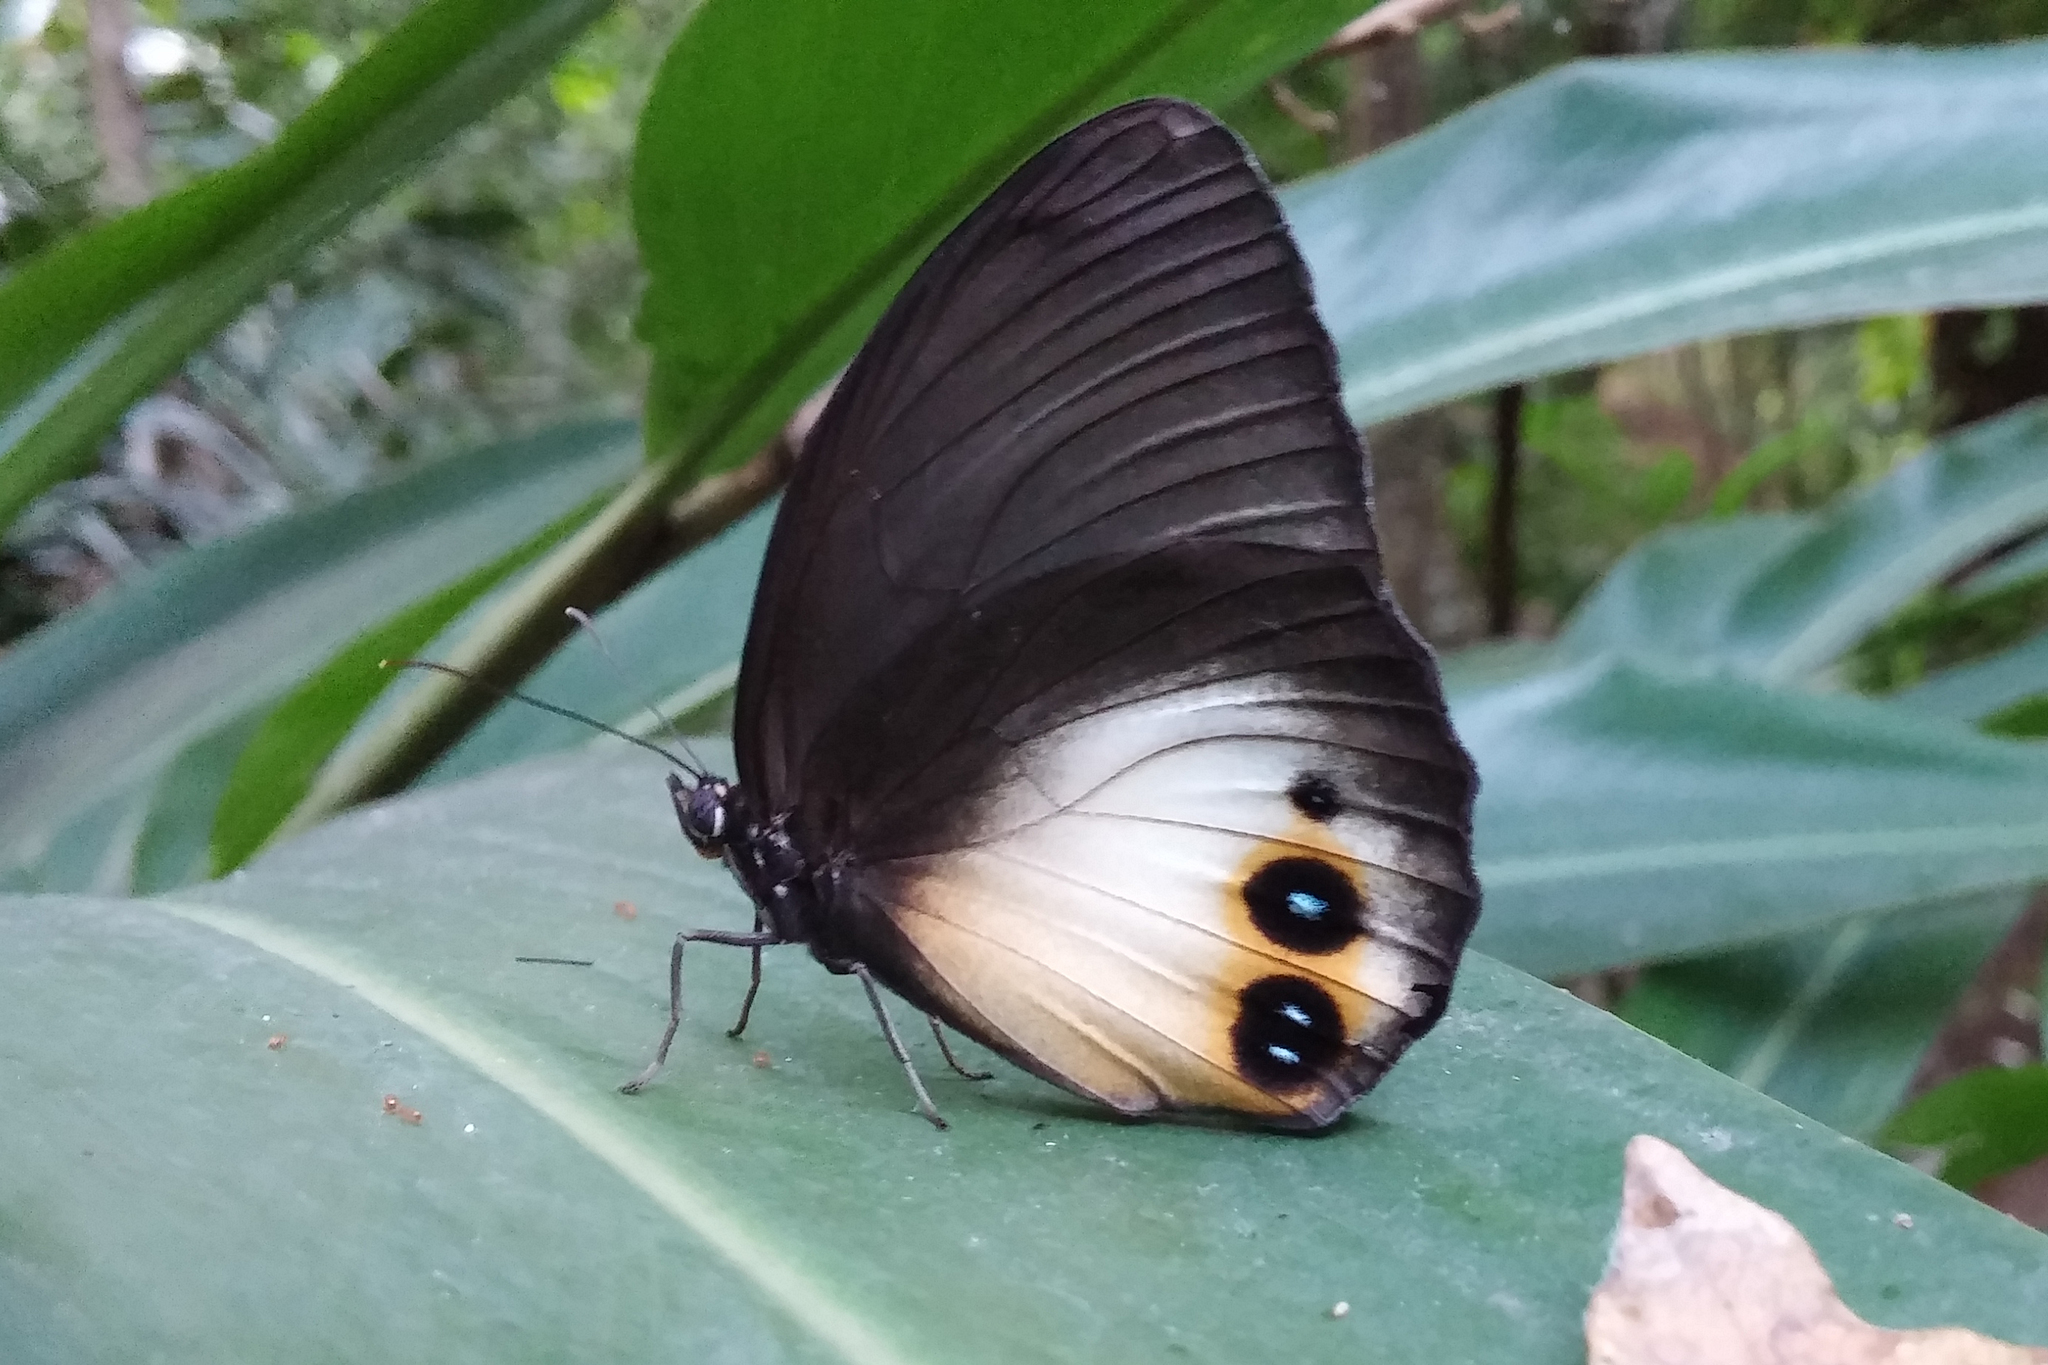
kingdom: Animalia
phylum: Arthropoda
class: Insecta
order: Lepidoptera
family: Nymphalidae
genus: Elymnias
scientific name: Elymnias agondas
